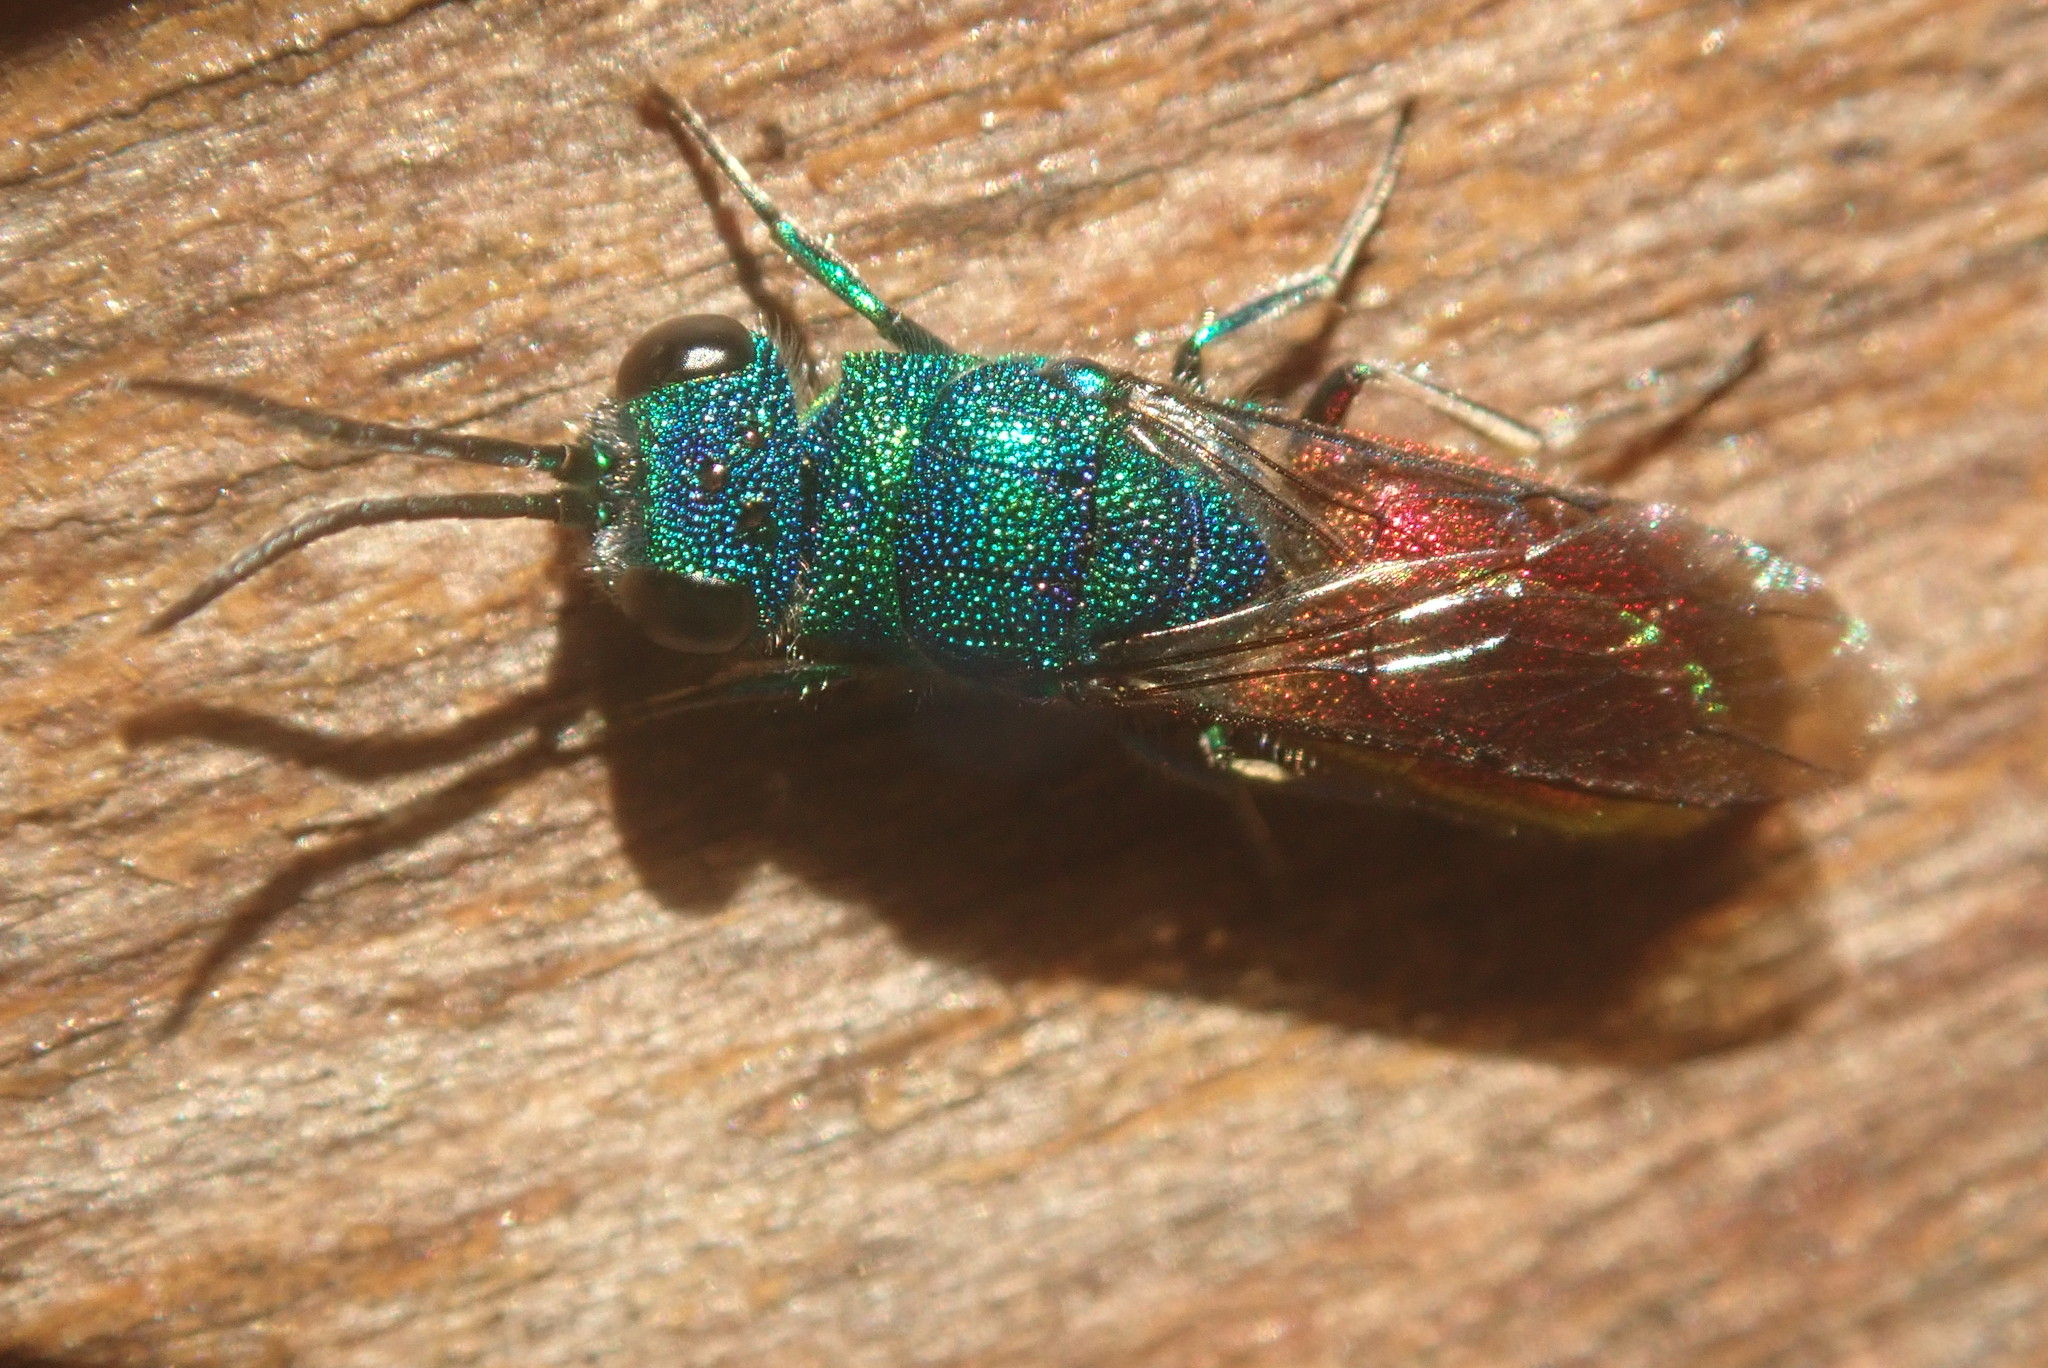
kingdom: Animalia
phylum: Arthropoda
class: Insecta
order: Hymenoptera
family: Chrysididae
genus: Chrysis
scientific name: Chrysis terminata
